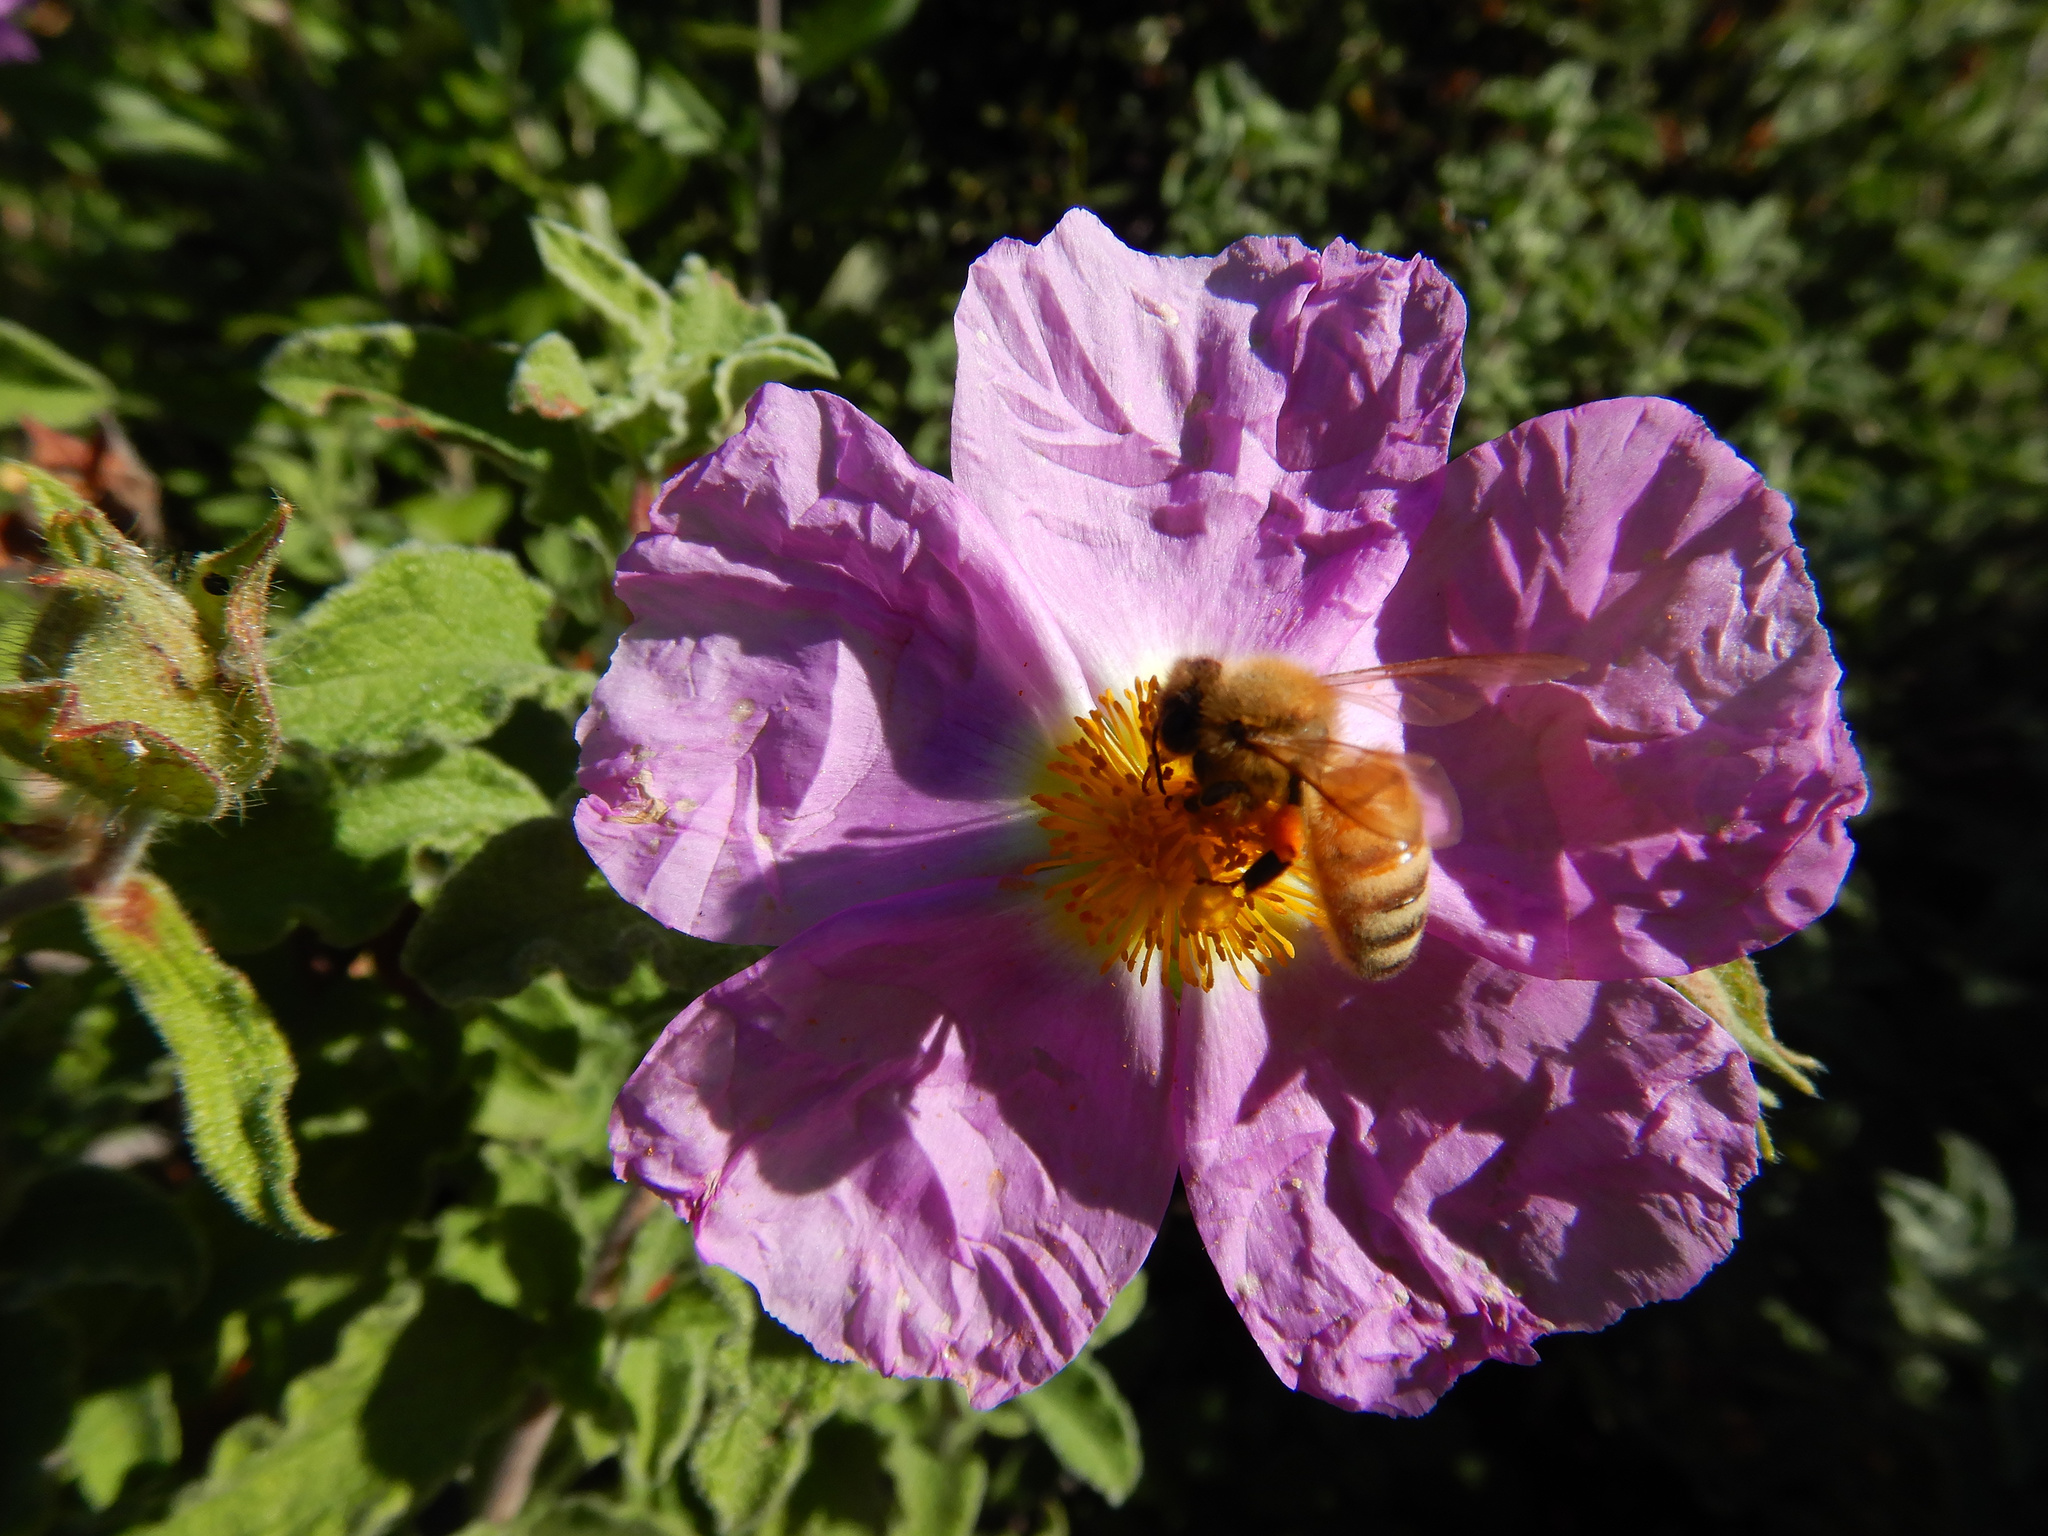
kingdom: Animalia
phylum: Arthropoda
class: Insecta
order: Hymenoptera
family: Apidae
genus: Apis
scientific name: Apis mellifera
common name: Honey bee
